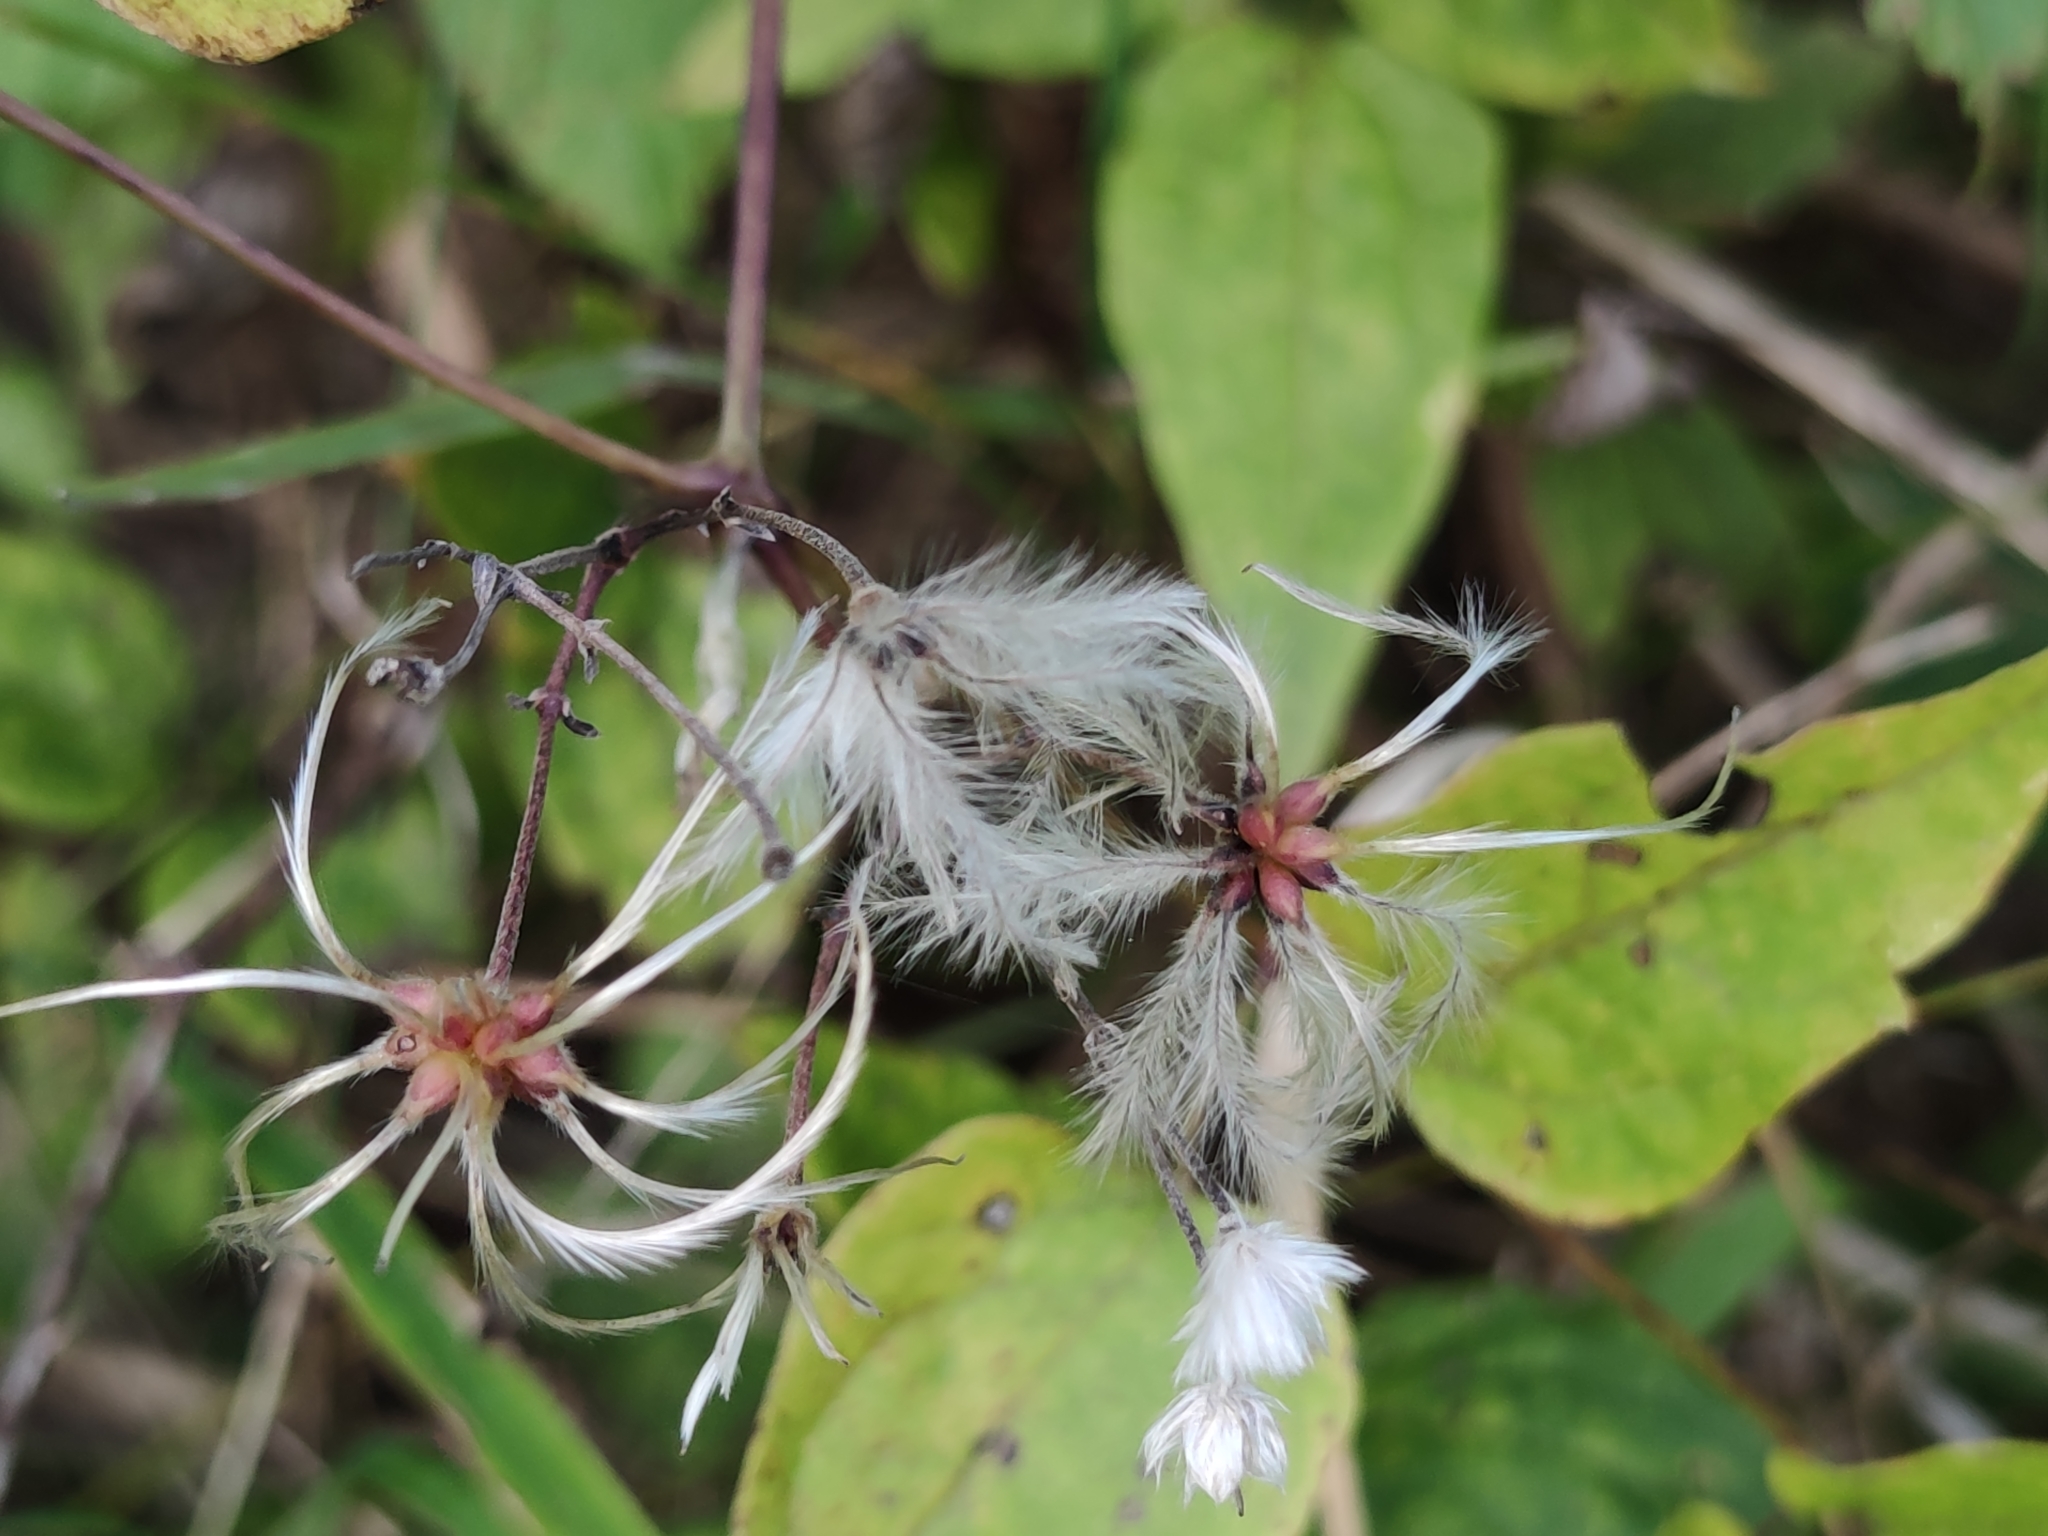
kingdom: Plantae
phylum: Tracheophyta
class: Magnoliopsida
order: Ranunculales
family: Ranunculaceae
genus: Clematis
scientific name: Clematis vitalba
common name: Evergreen clematis
